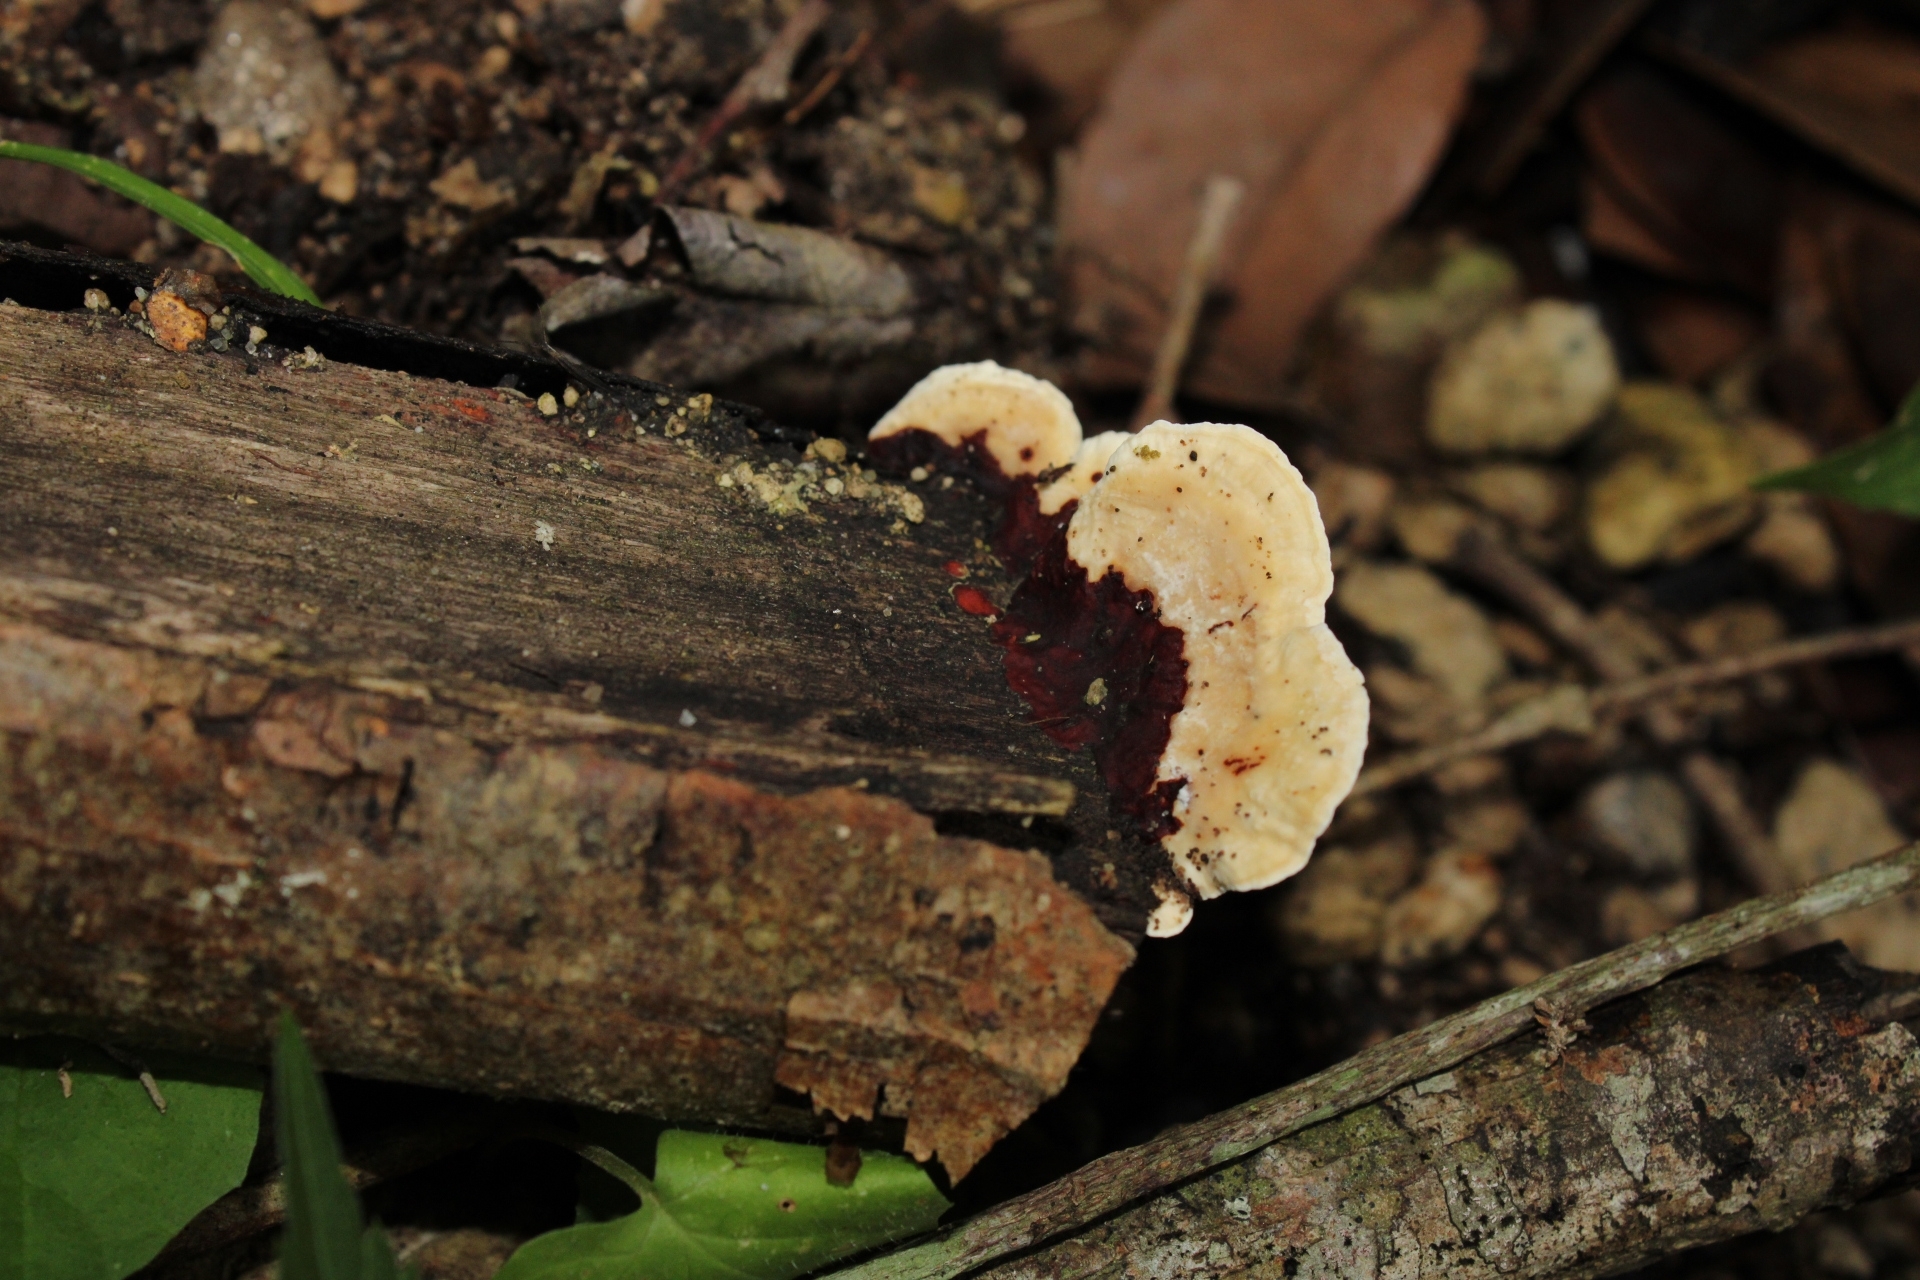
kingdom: Fungi
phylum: Basidiomycota
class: Agaricomycetes
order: Polyporales
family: Polyporaceae
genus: Earliella
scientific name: Earliella scabrosa
